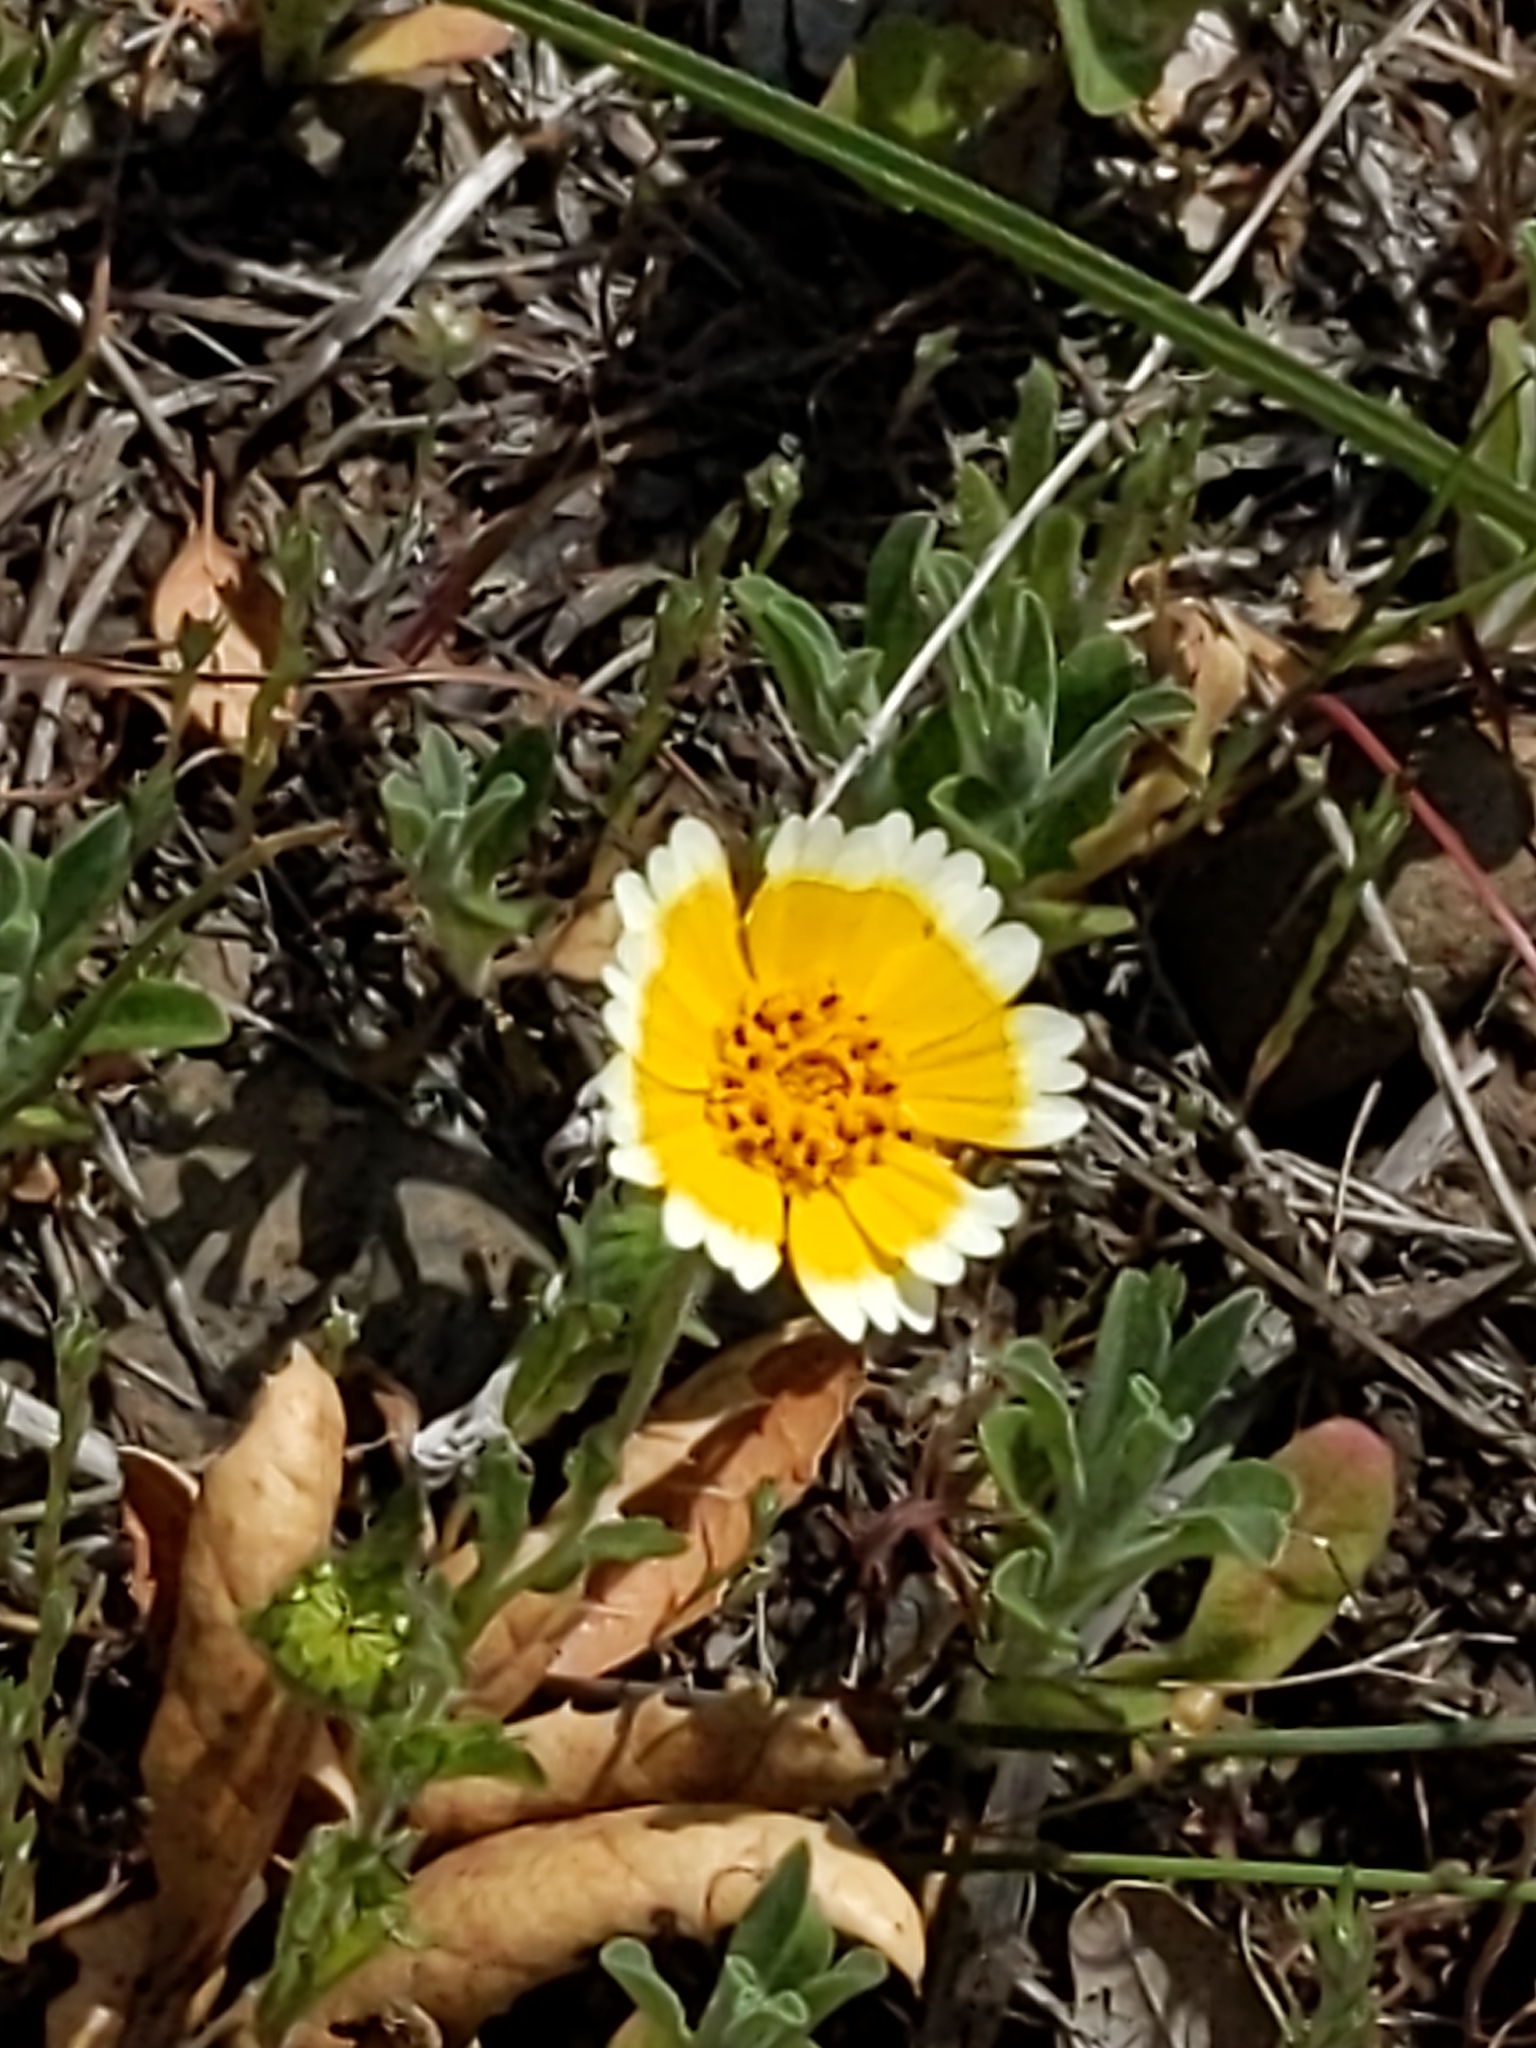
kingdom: Plantae
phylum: Tracheophyta
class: Magnoliopsida
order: Asterales
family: Asteraceae
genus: Layia
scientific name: Layia platyglossa
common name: Tidy-tips
